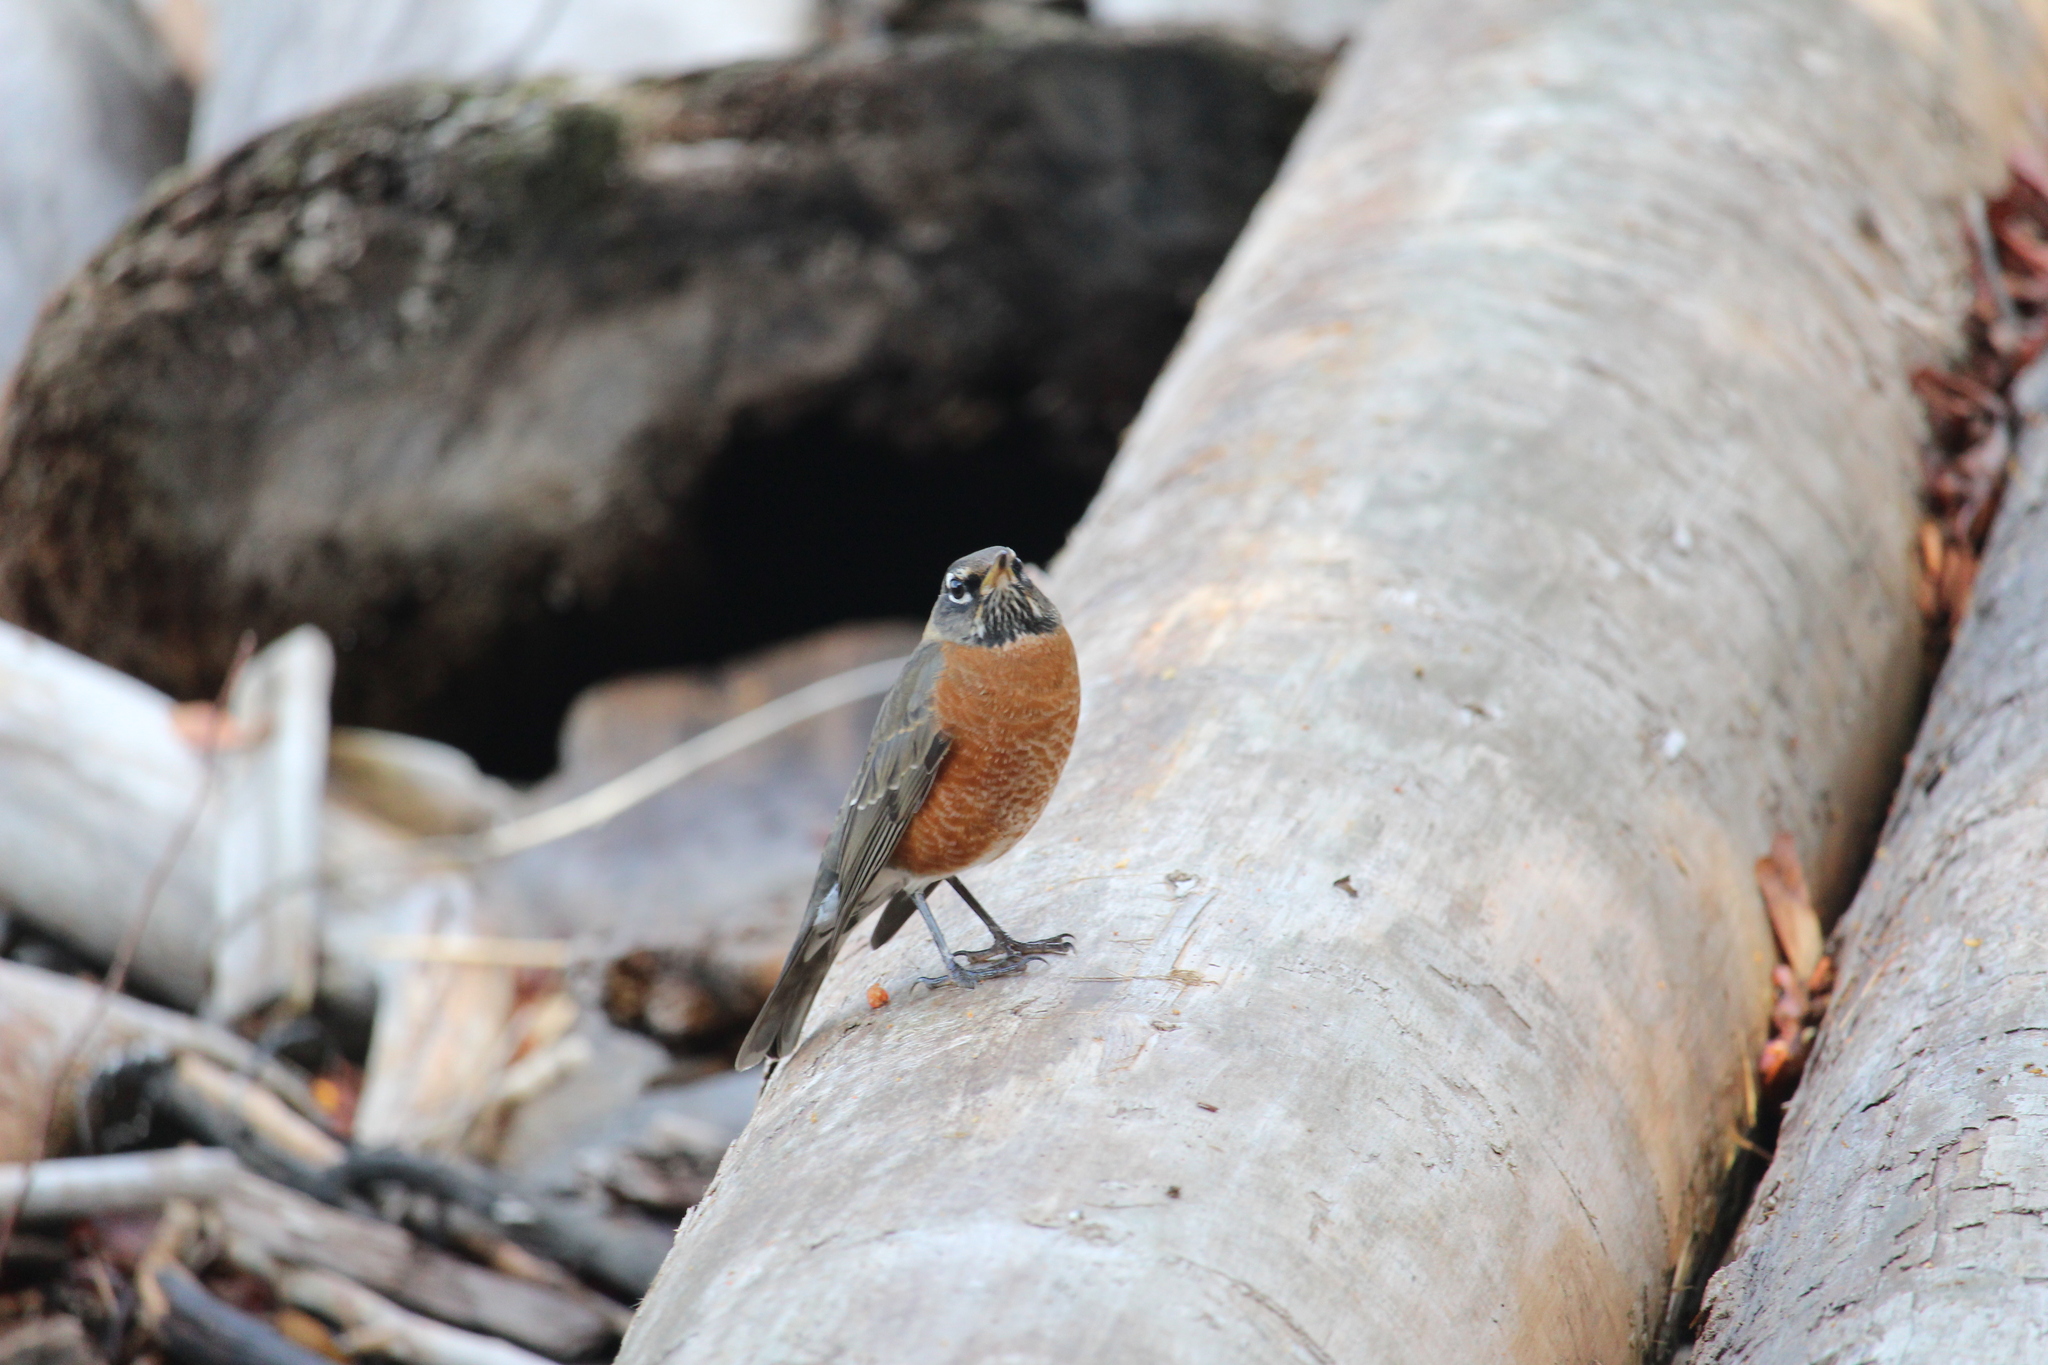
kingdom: Animalia
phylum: Chordata
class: Aves
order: Passeriformes
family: Turdidae
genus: Turdus
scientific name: Turdus migratorius
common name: American robin
